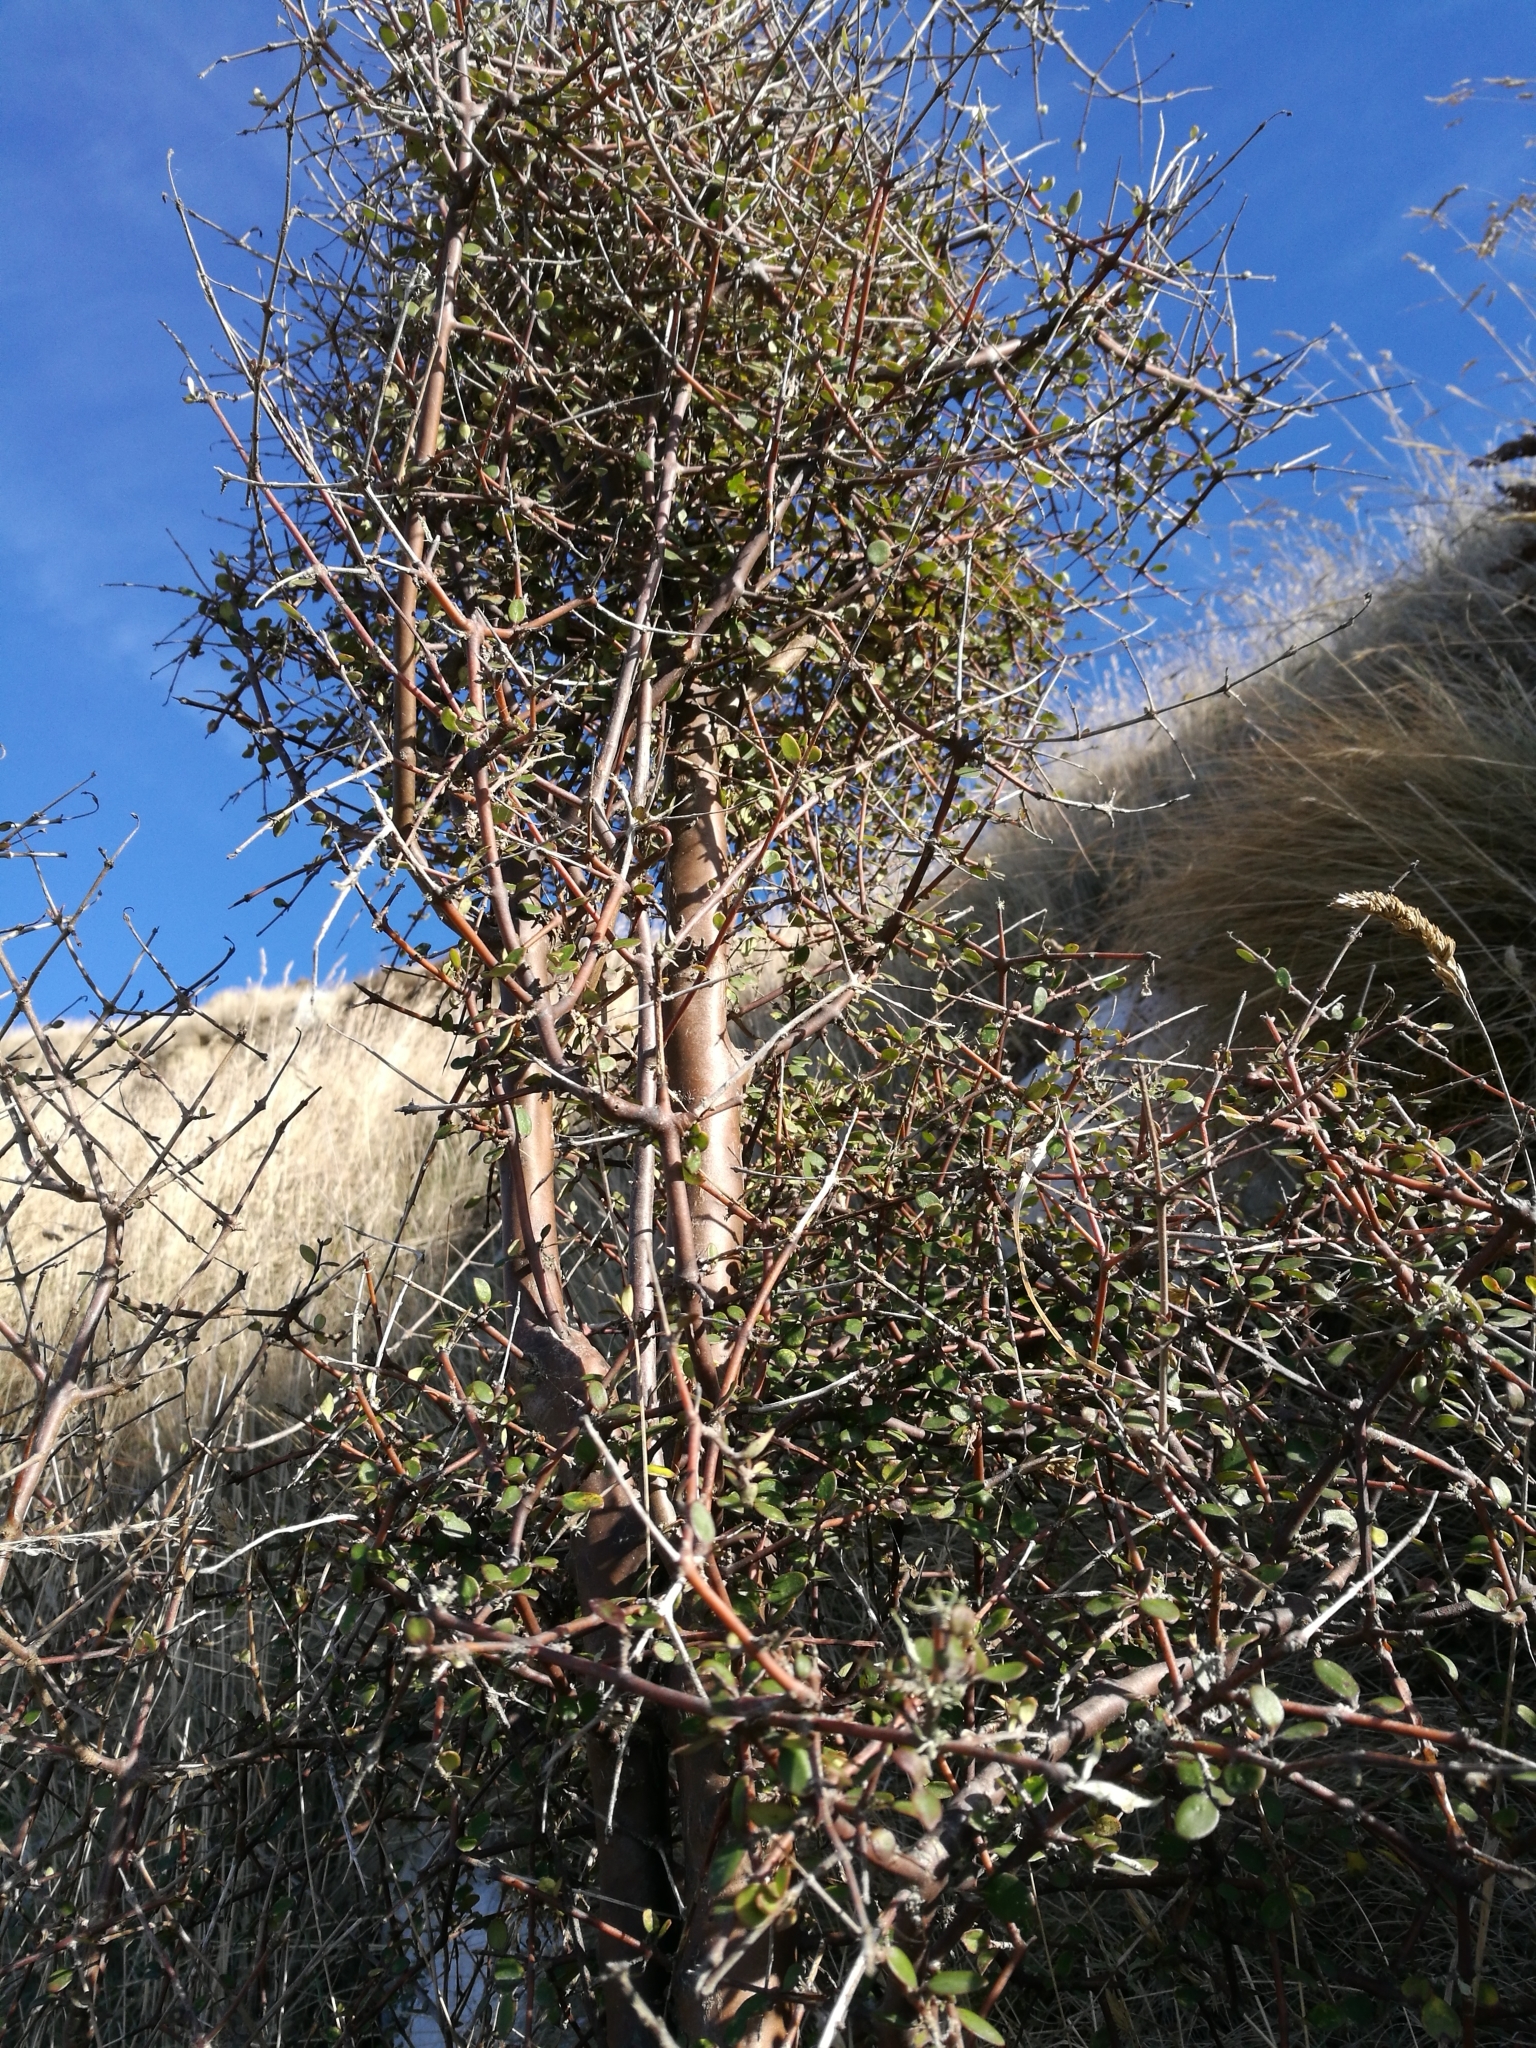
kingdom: Plantae
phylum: Tracheophyta
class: Magnoliopsida
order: Gentianales
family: Rubiaceae
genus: Coprosma
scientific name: Coprosma crassifolia
